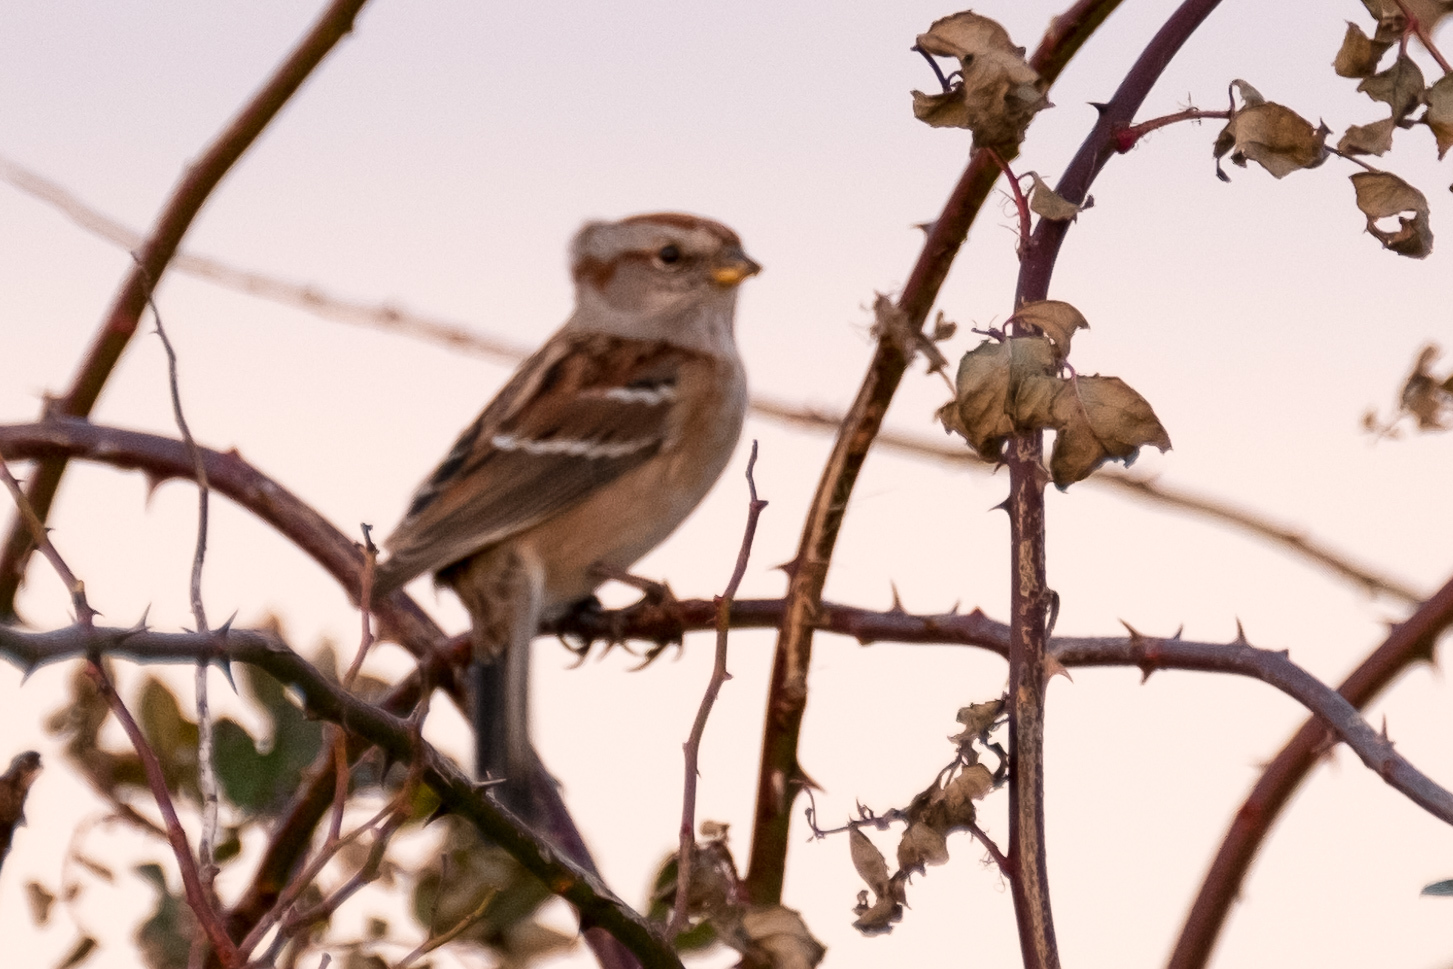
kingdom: Animalia
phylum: Chordata
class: Aves
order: Passeriformes
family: Passerellidae
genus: Spizelloides
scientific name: Spizelloides arborea
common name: American tree sparrow
